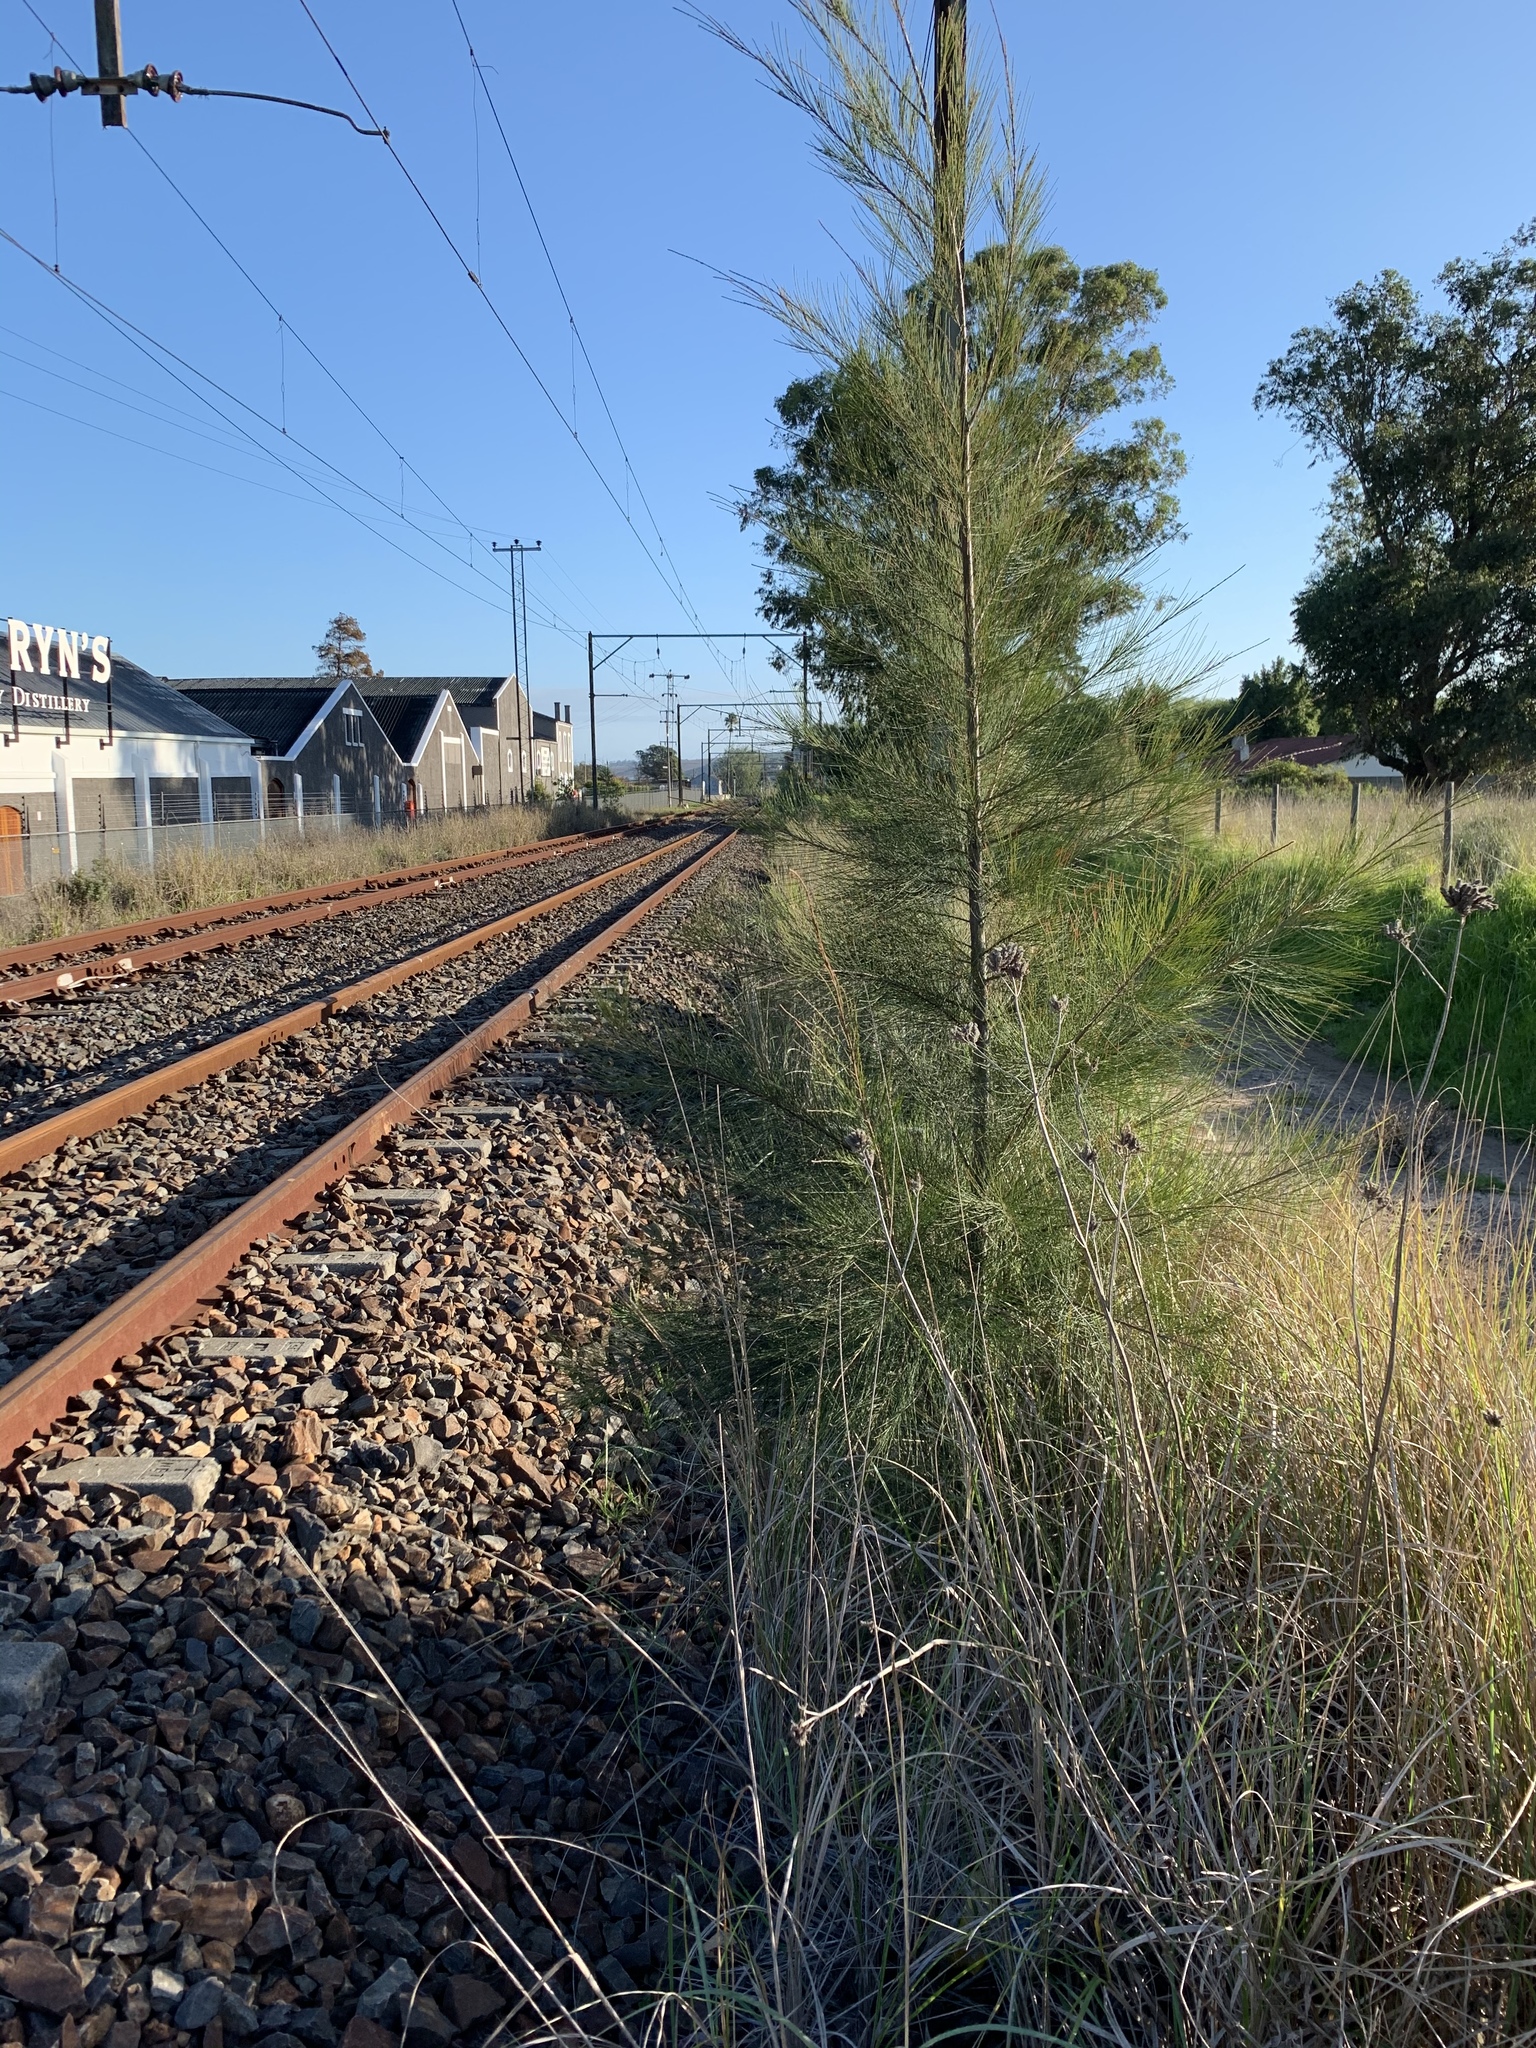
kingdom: Plantae
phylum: Tracheophyta
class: Magnoliopsida
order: Fagales
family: Casuarinaceae
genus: Casuarina
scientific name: Casuarina cunninghamiana
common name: River sheoak
